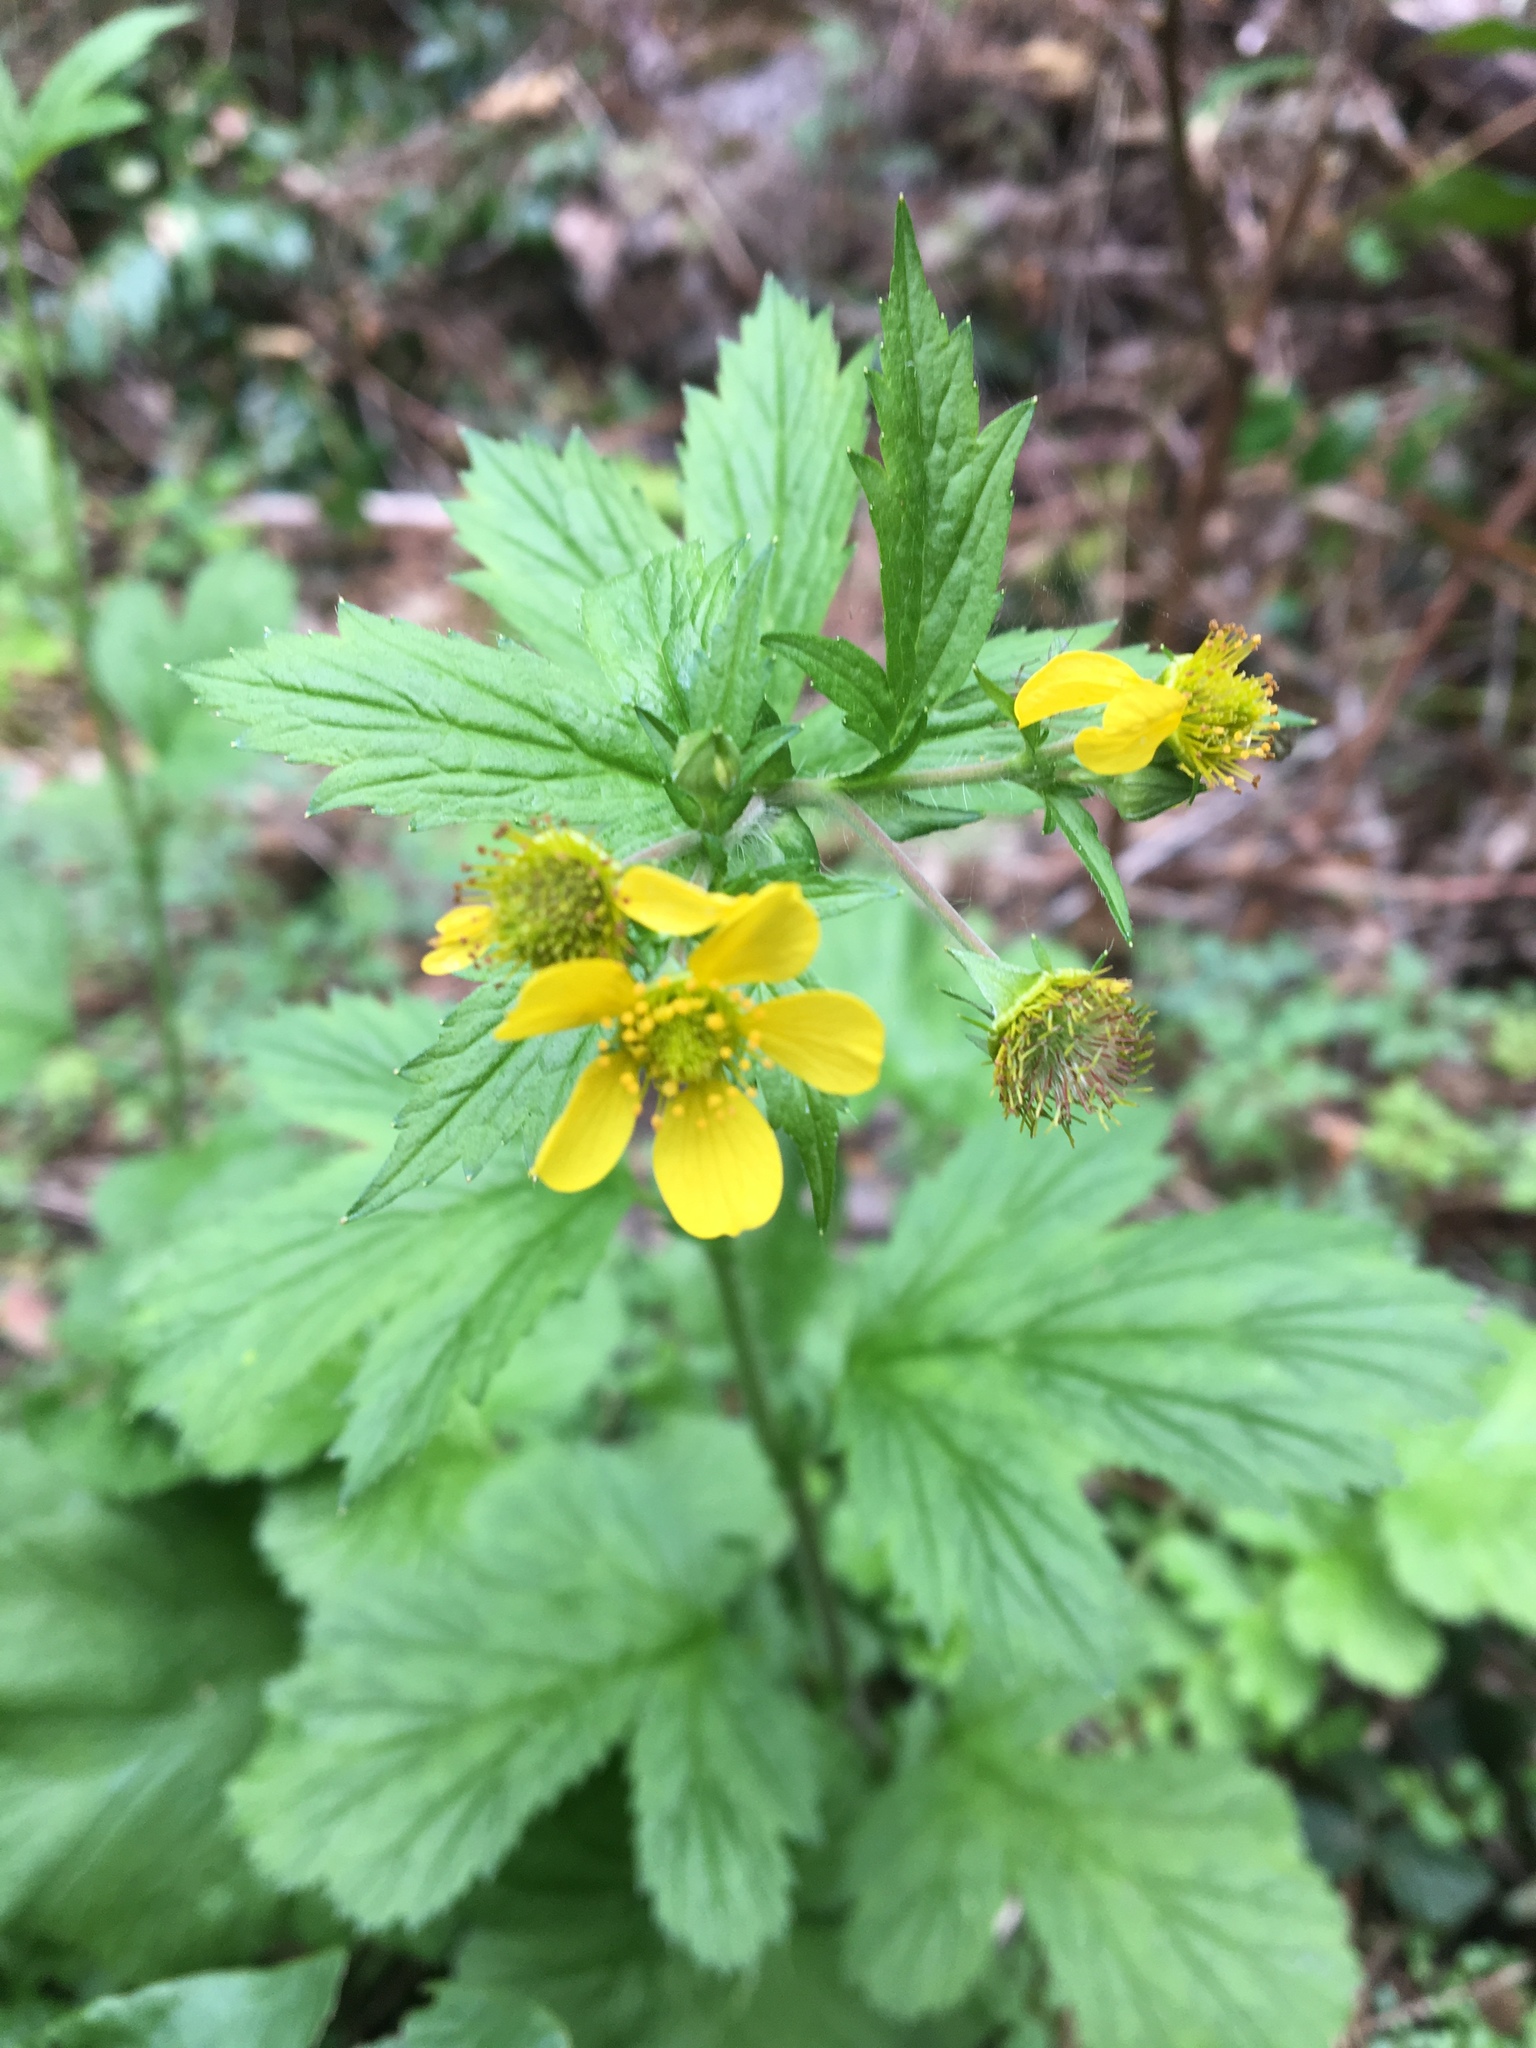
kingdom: Plantae
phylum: Tracheophyta
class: Magnoliopsida
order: Rosales
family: Rosaceae
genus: Geum
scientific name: Geum macrophyllum
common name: Large-leaved avens
